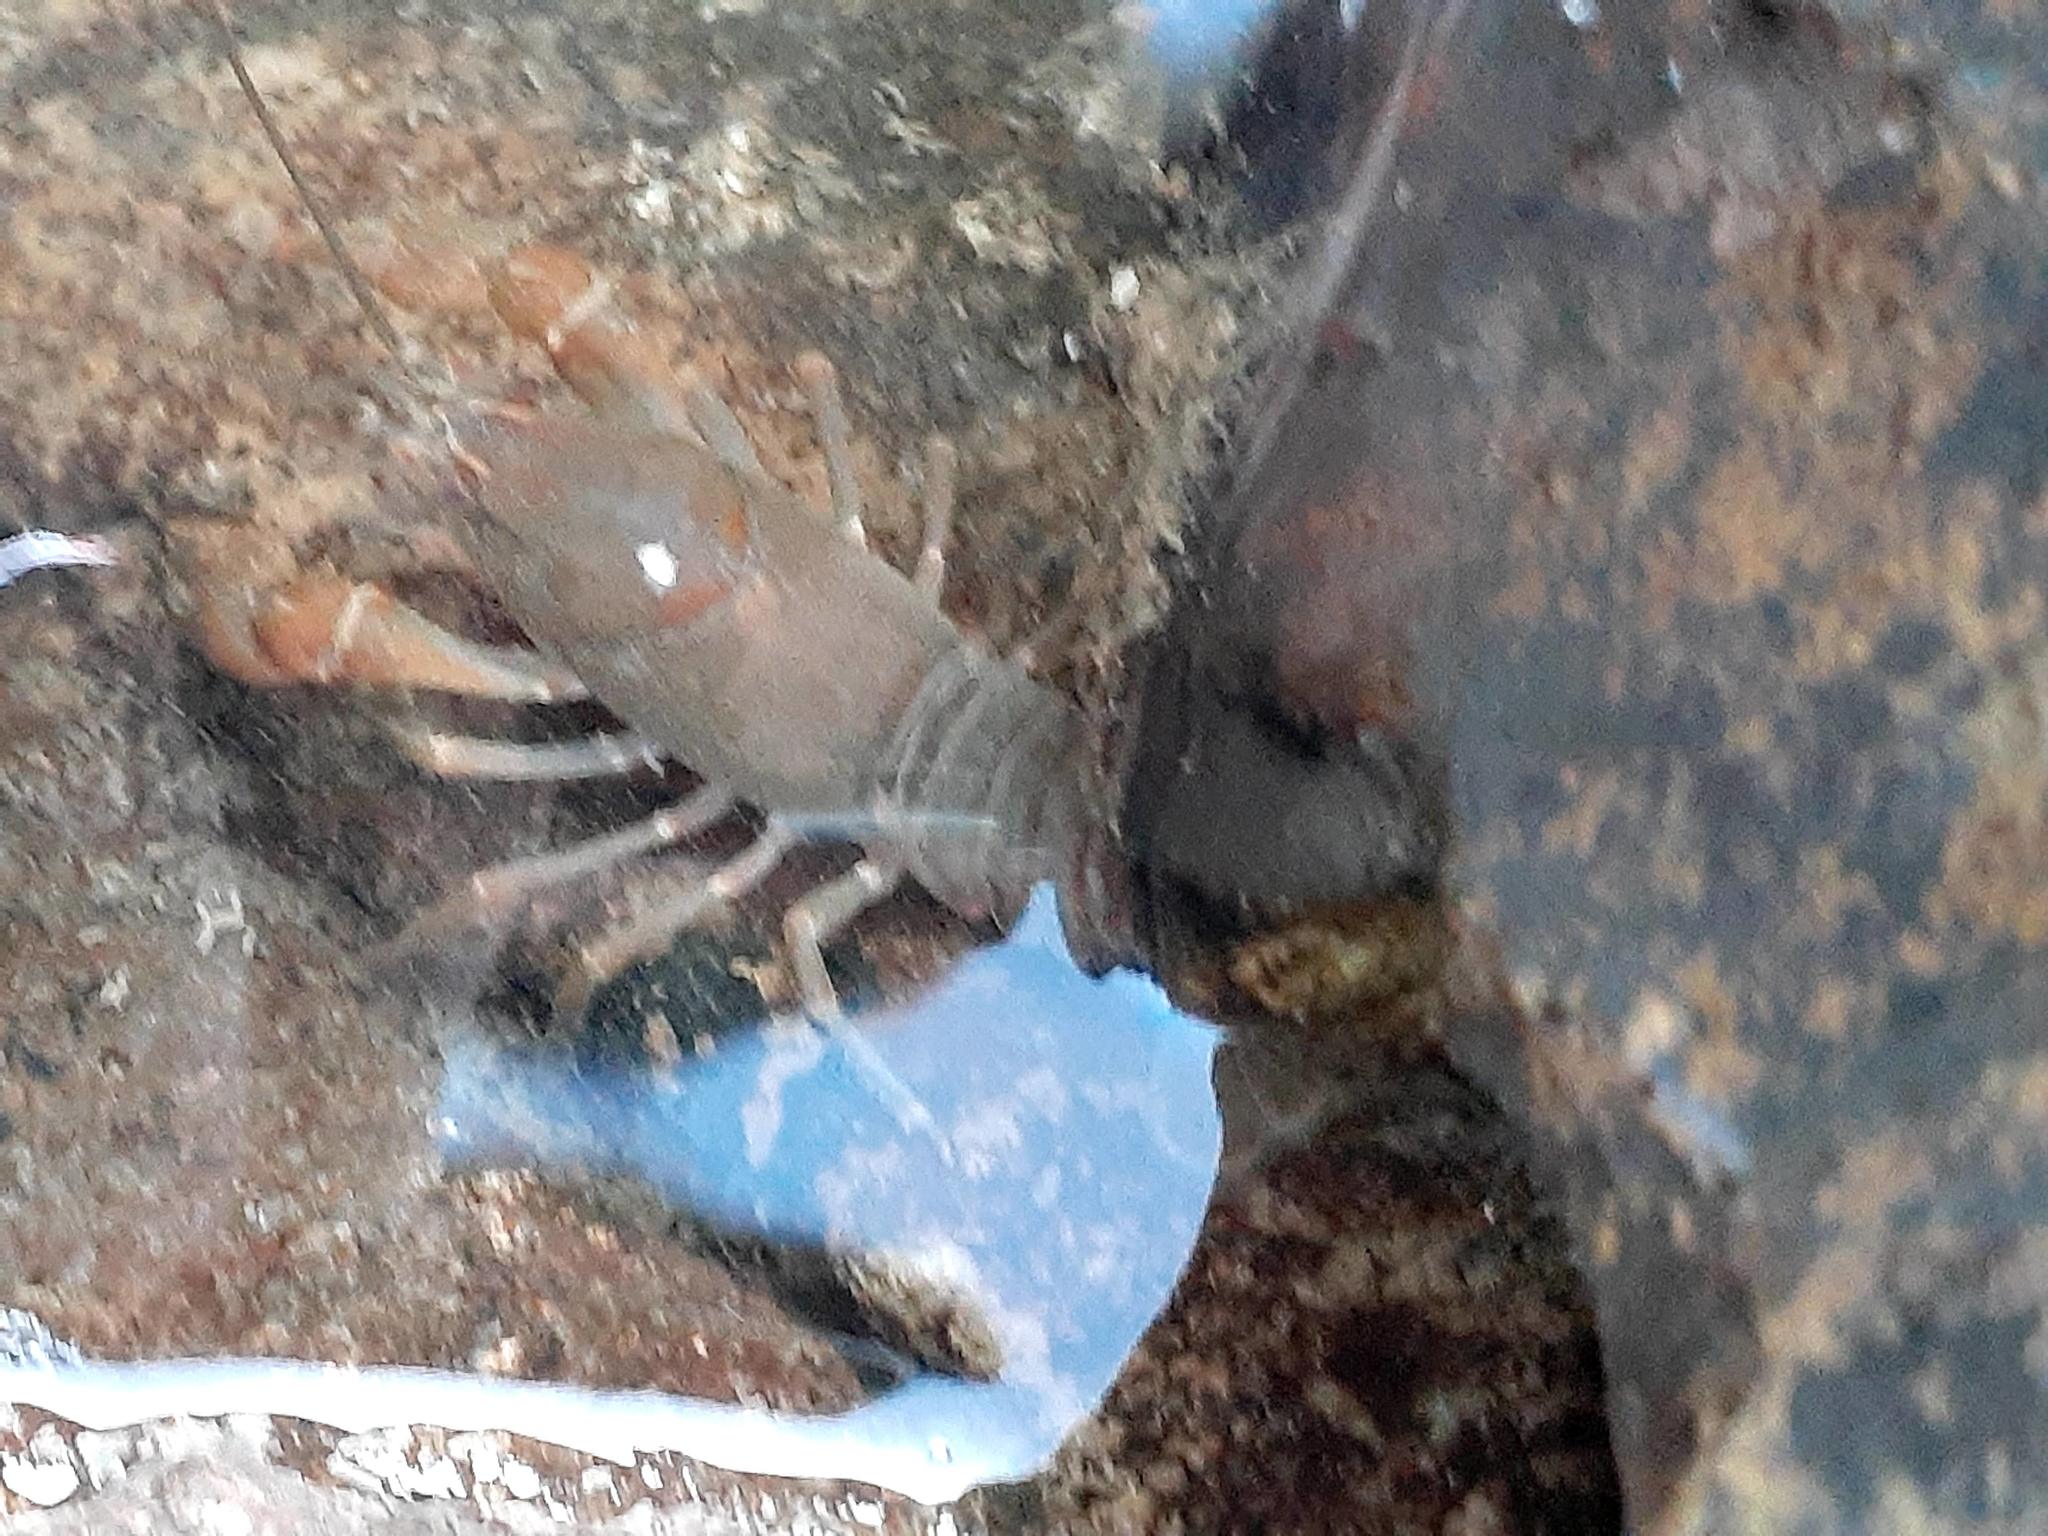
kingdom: Animalia
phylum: Arthropoda
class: Malacostraca
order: Decapoda
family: Cambaridae
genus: Cambarus
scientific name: Cambarus bartonii
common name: Appalachian brook crayfish
